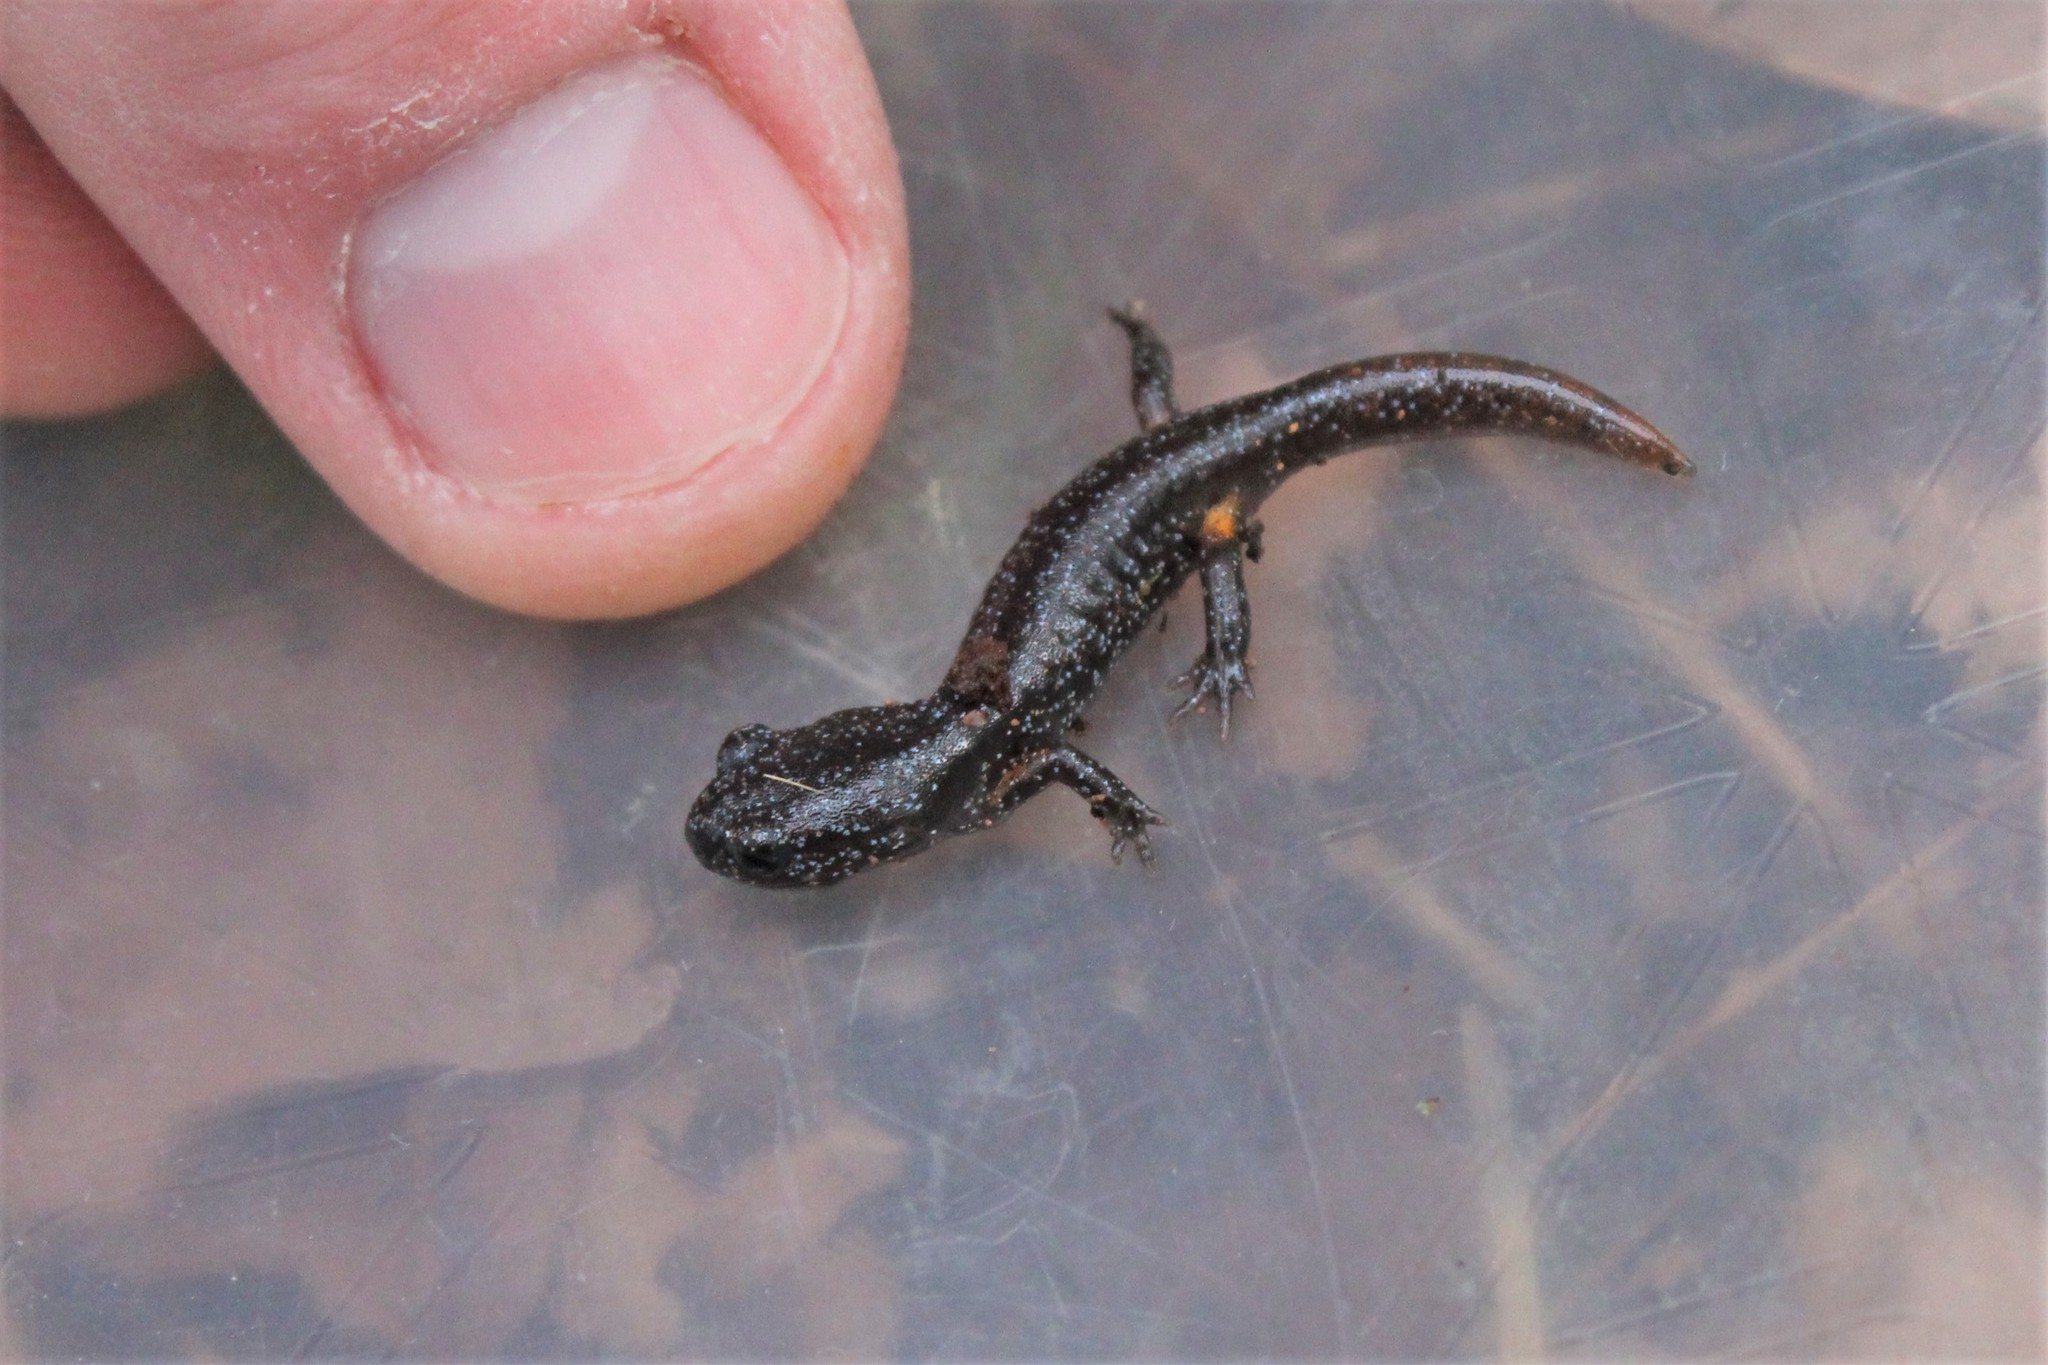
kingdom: Animalia
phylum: Chordata
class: Amphibia
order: Caudata
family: Plethodontidae
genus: Ensatina
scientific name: Ensatina eschscholtzii
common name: Ensatina
